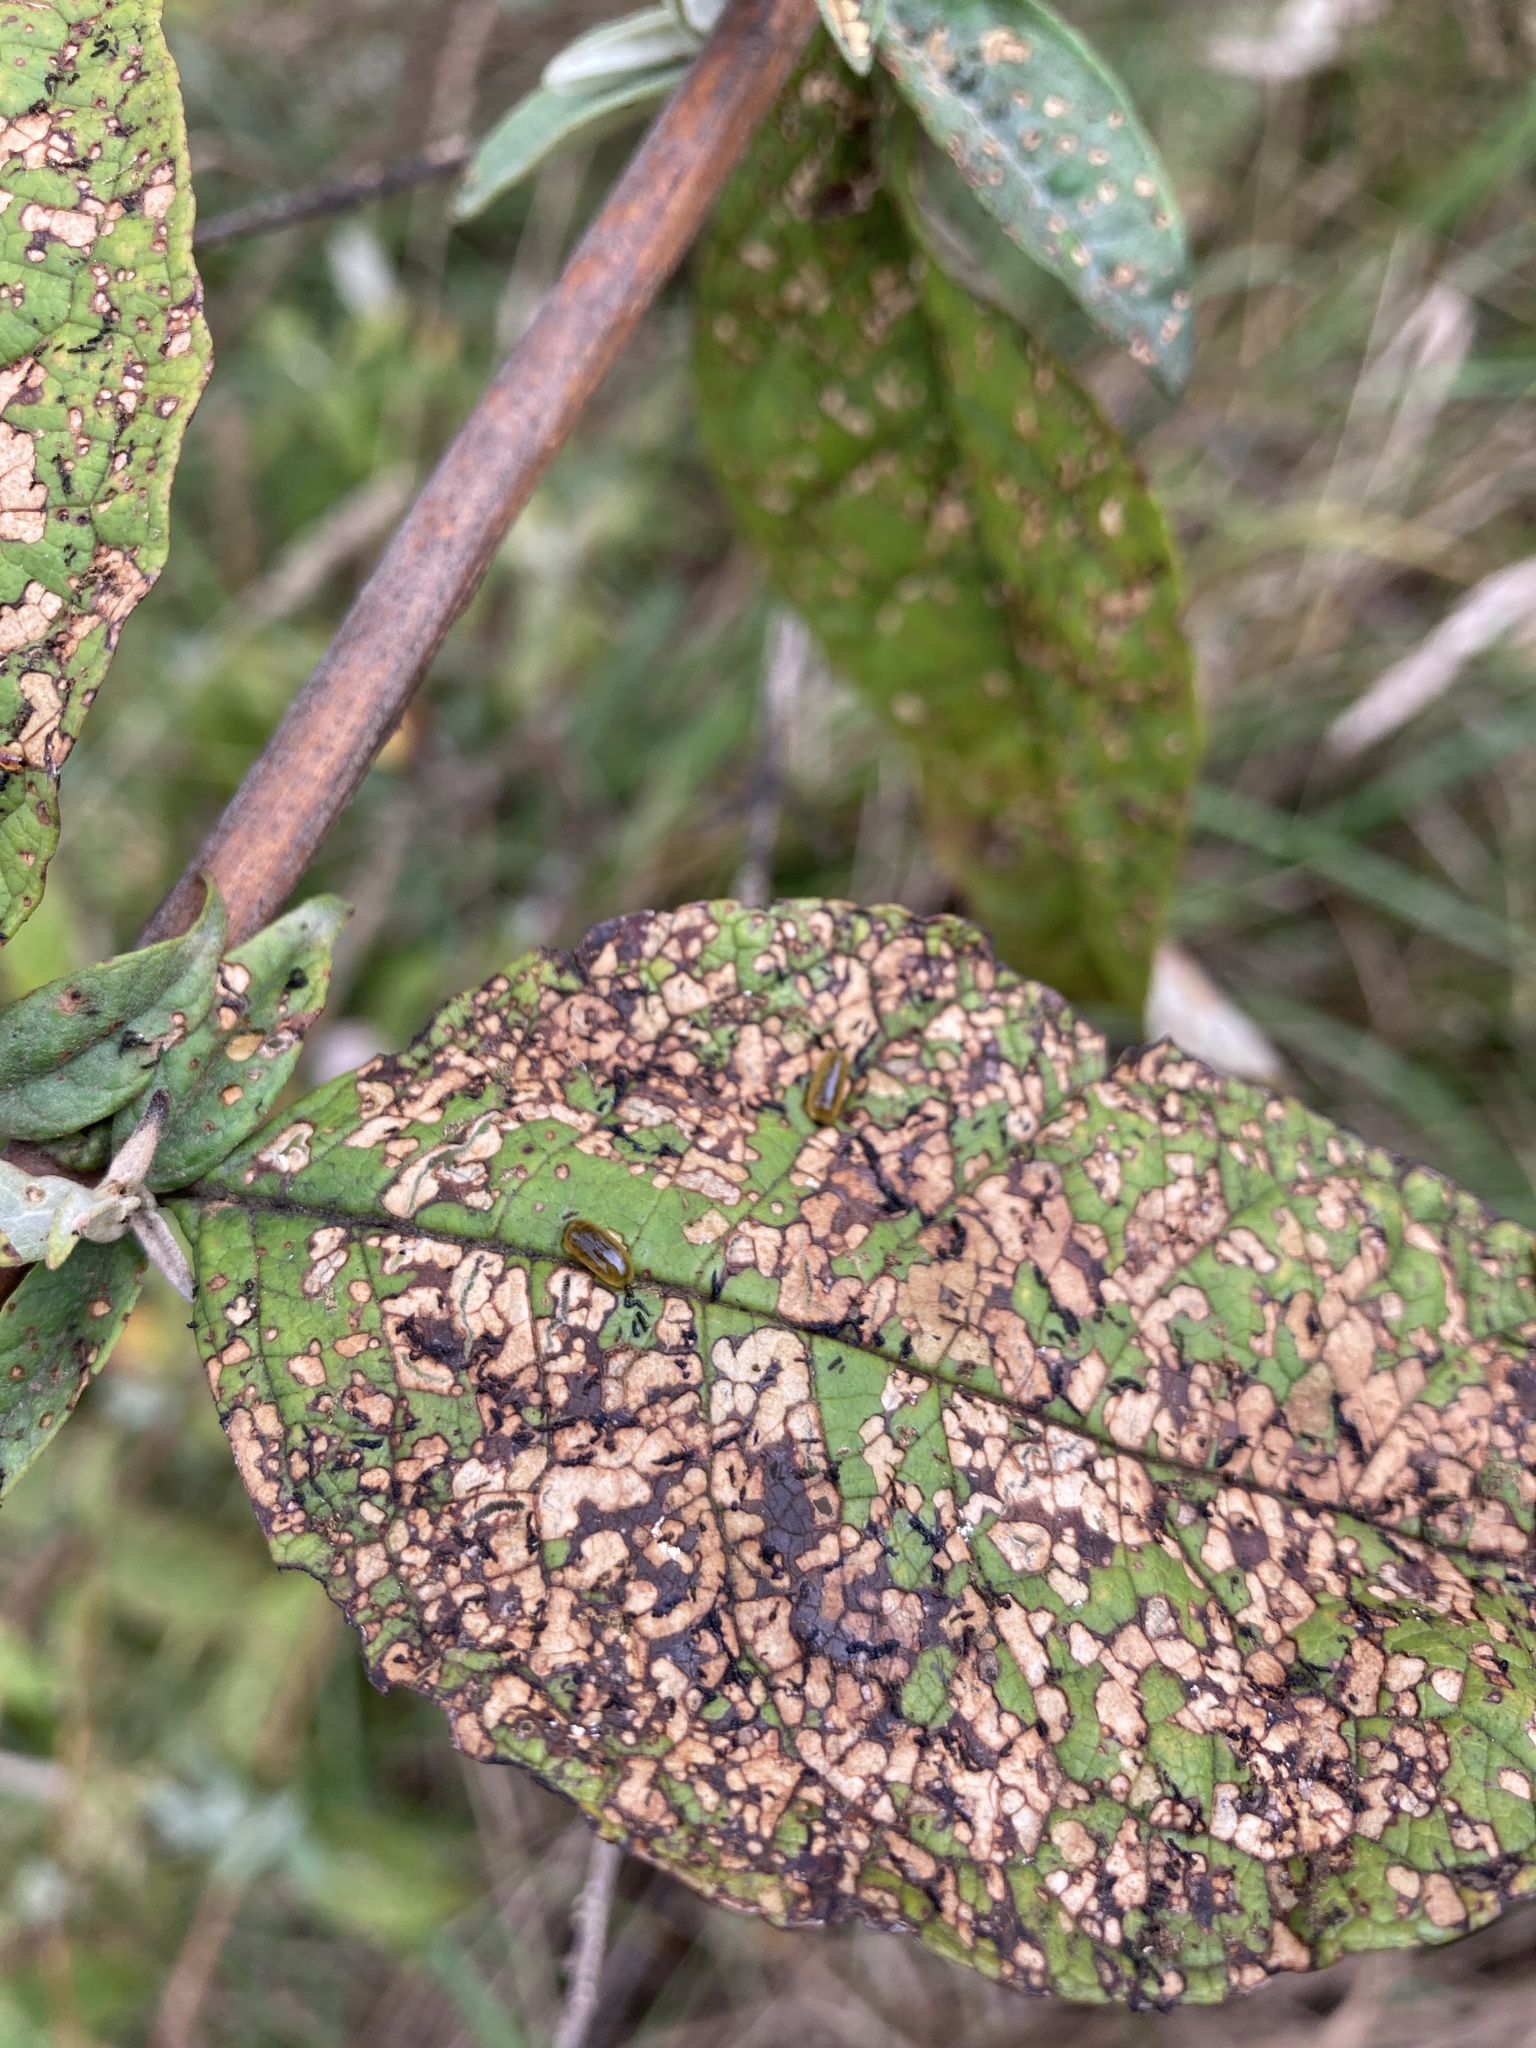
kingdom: Animalia
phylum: Arthropoda
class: Insecta
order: Coleoptera
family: Curculionidae
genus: Cleopus
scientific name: Cleopus japonicus
